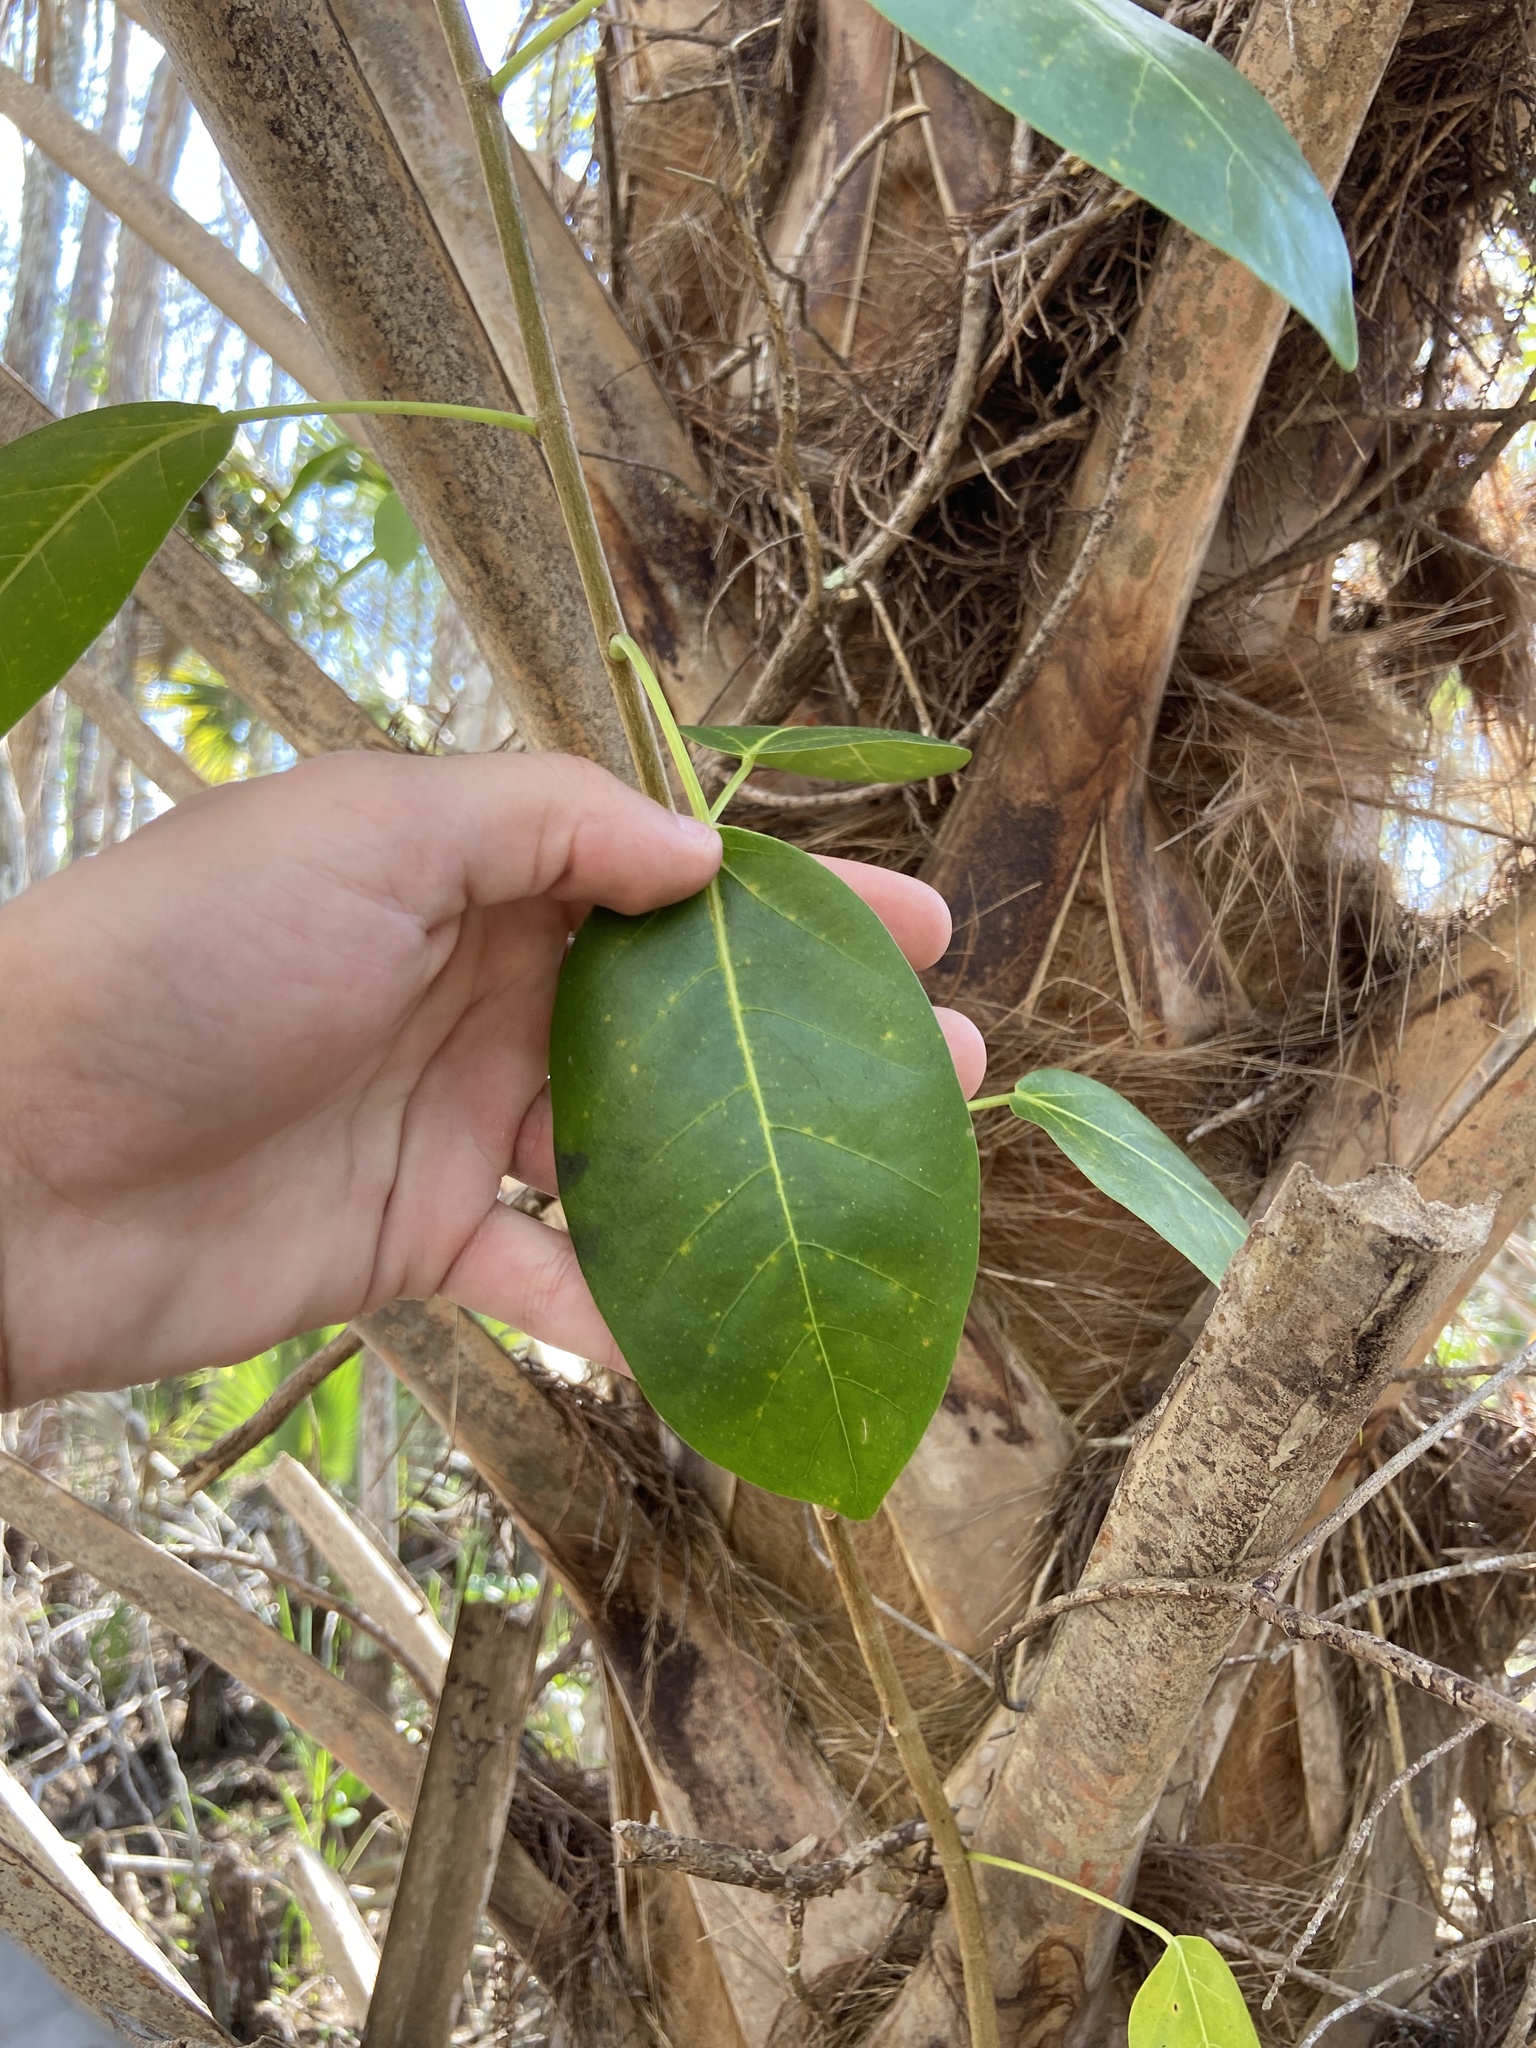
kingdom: Plantae
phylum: Tracheophyta
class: Magnoliopsida
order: Rosales
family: Moraceae
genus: Ficus
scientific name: Ficus aurea
